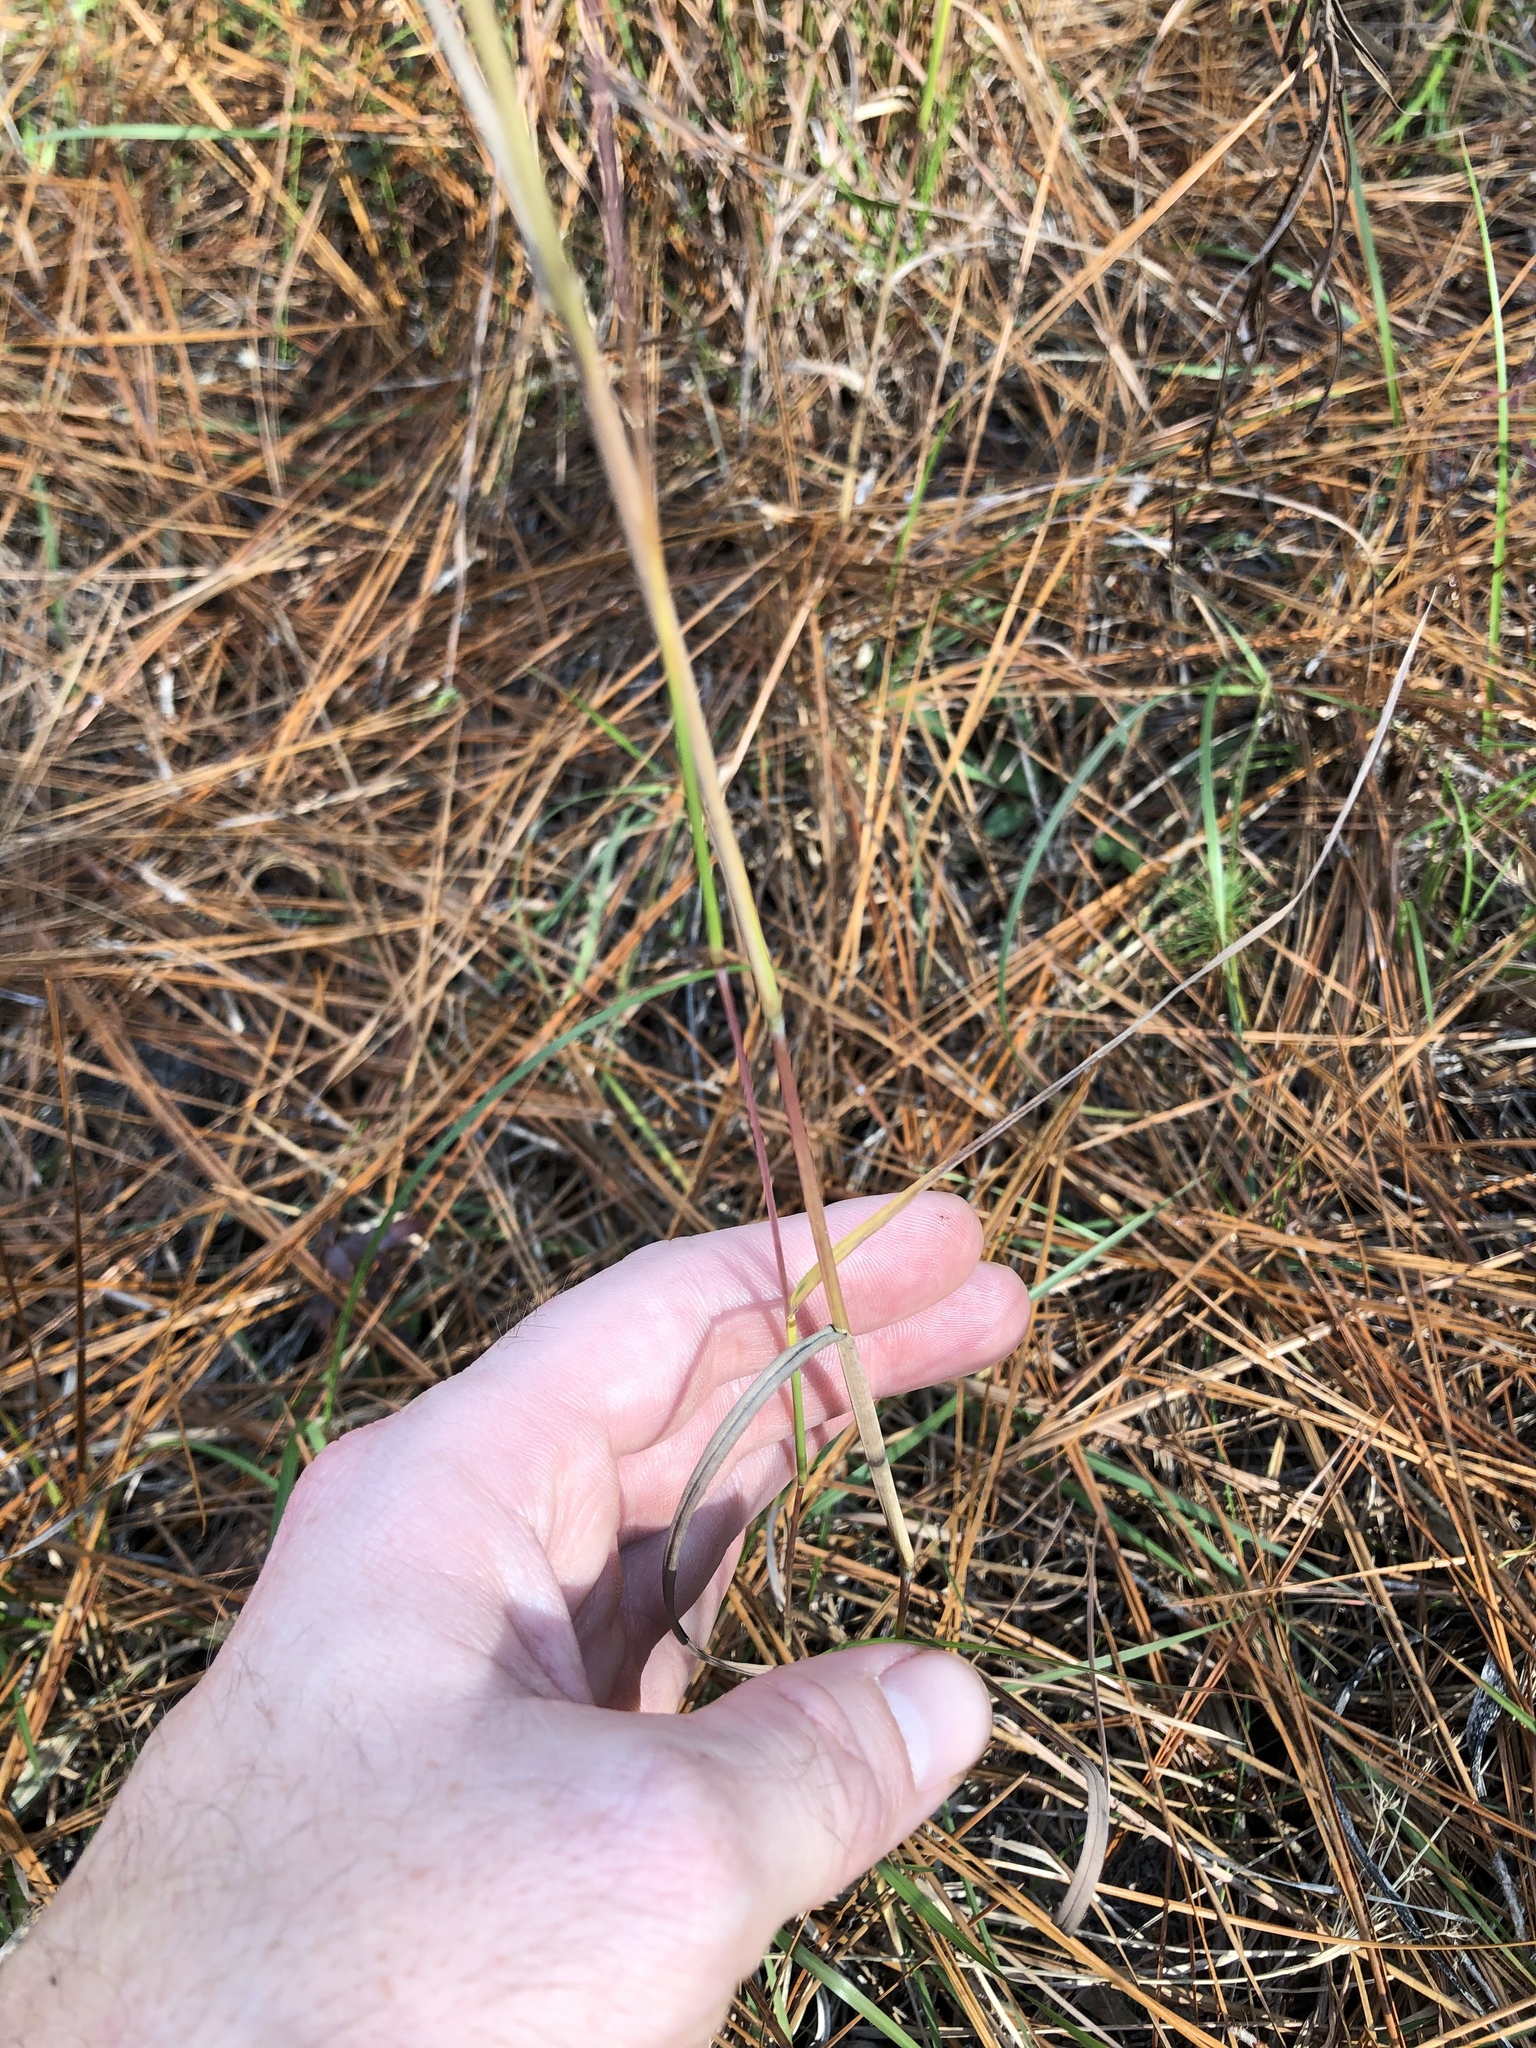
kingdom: Plantae
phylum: Tracheophyta
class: Liliopsida
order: Poales
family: Poaceae
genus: Andropogon
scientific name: Andropogon ternarius
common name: Split bluestem
